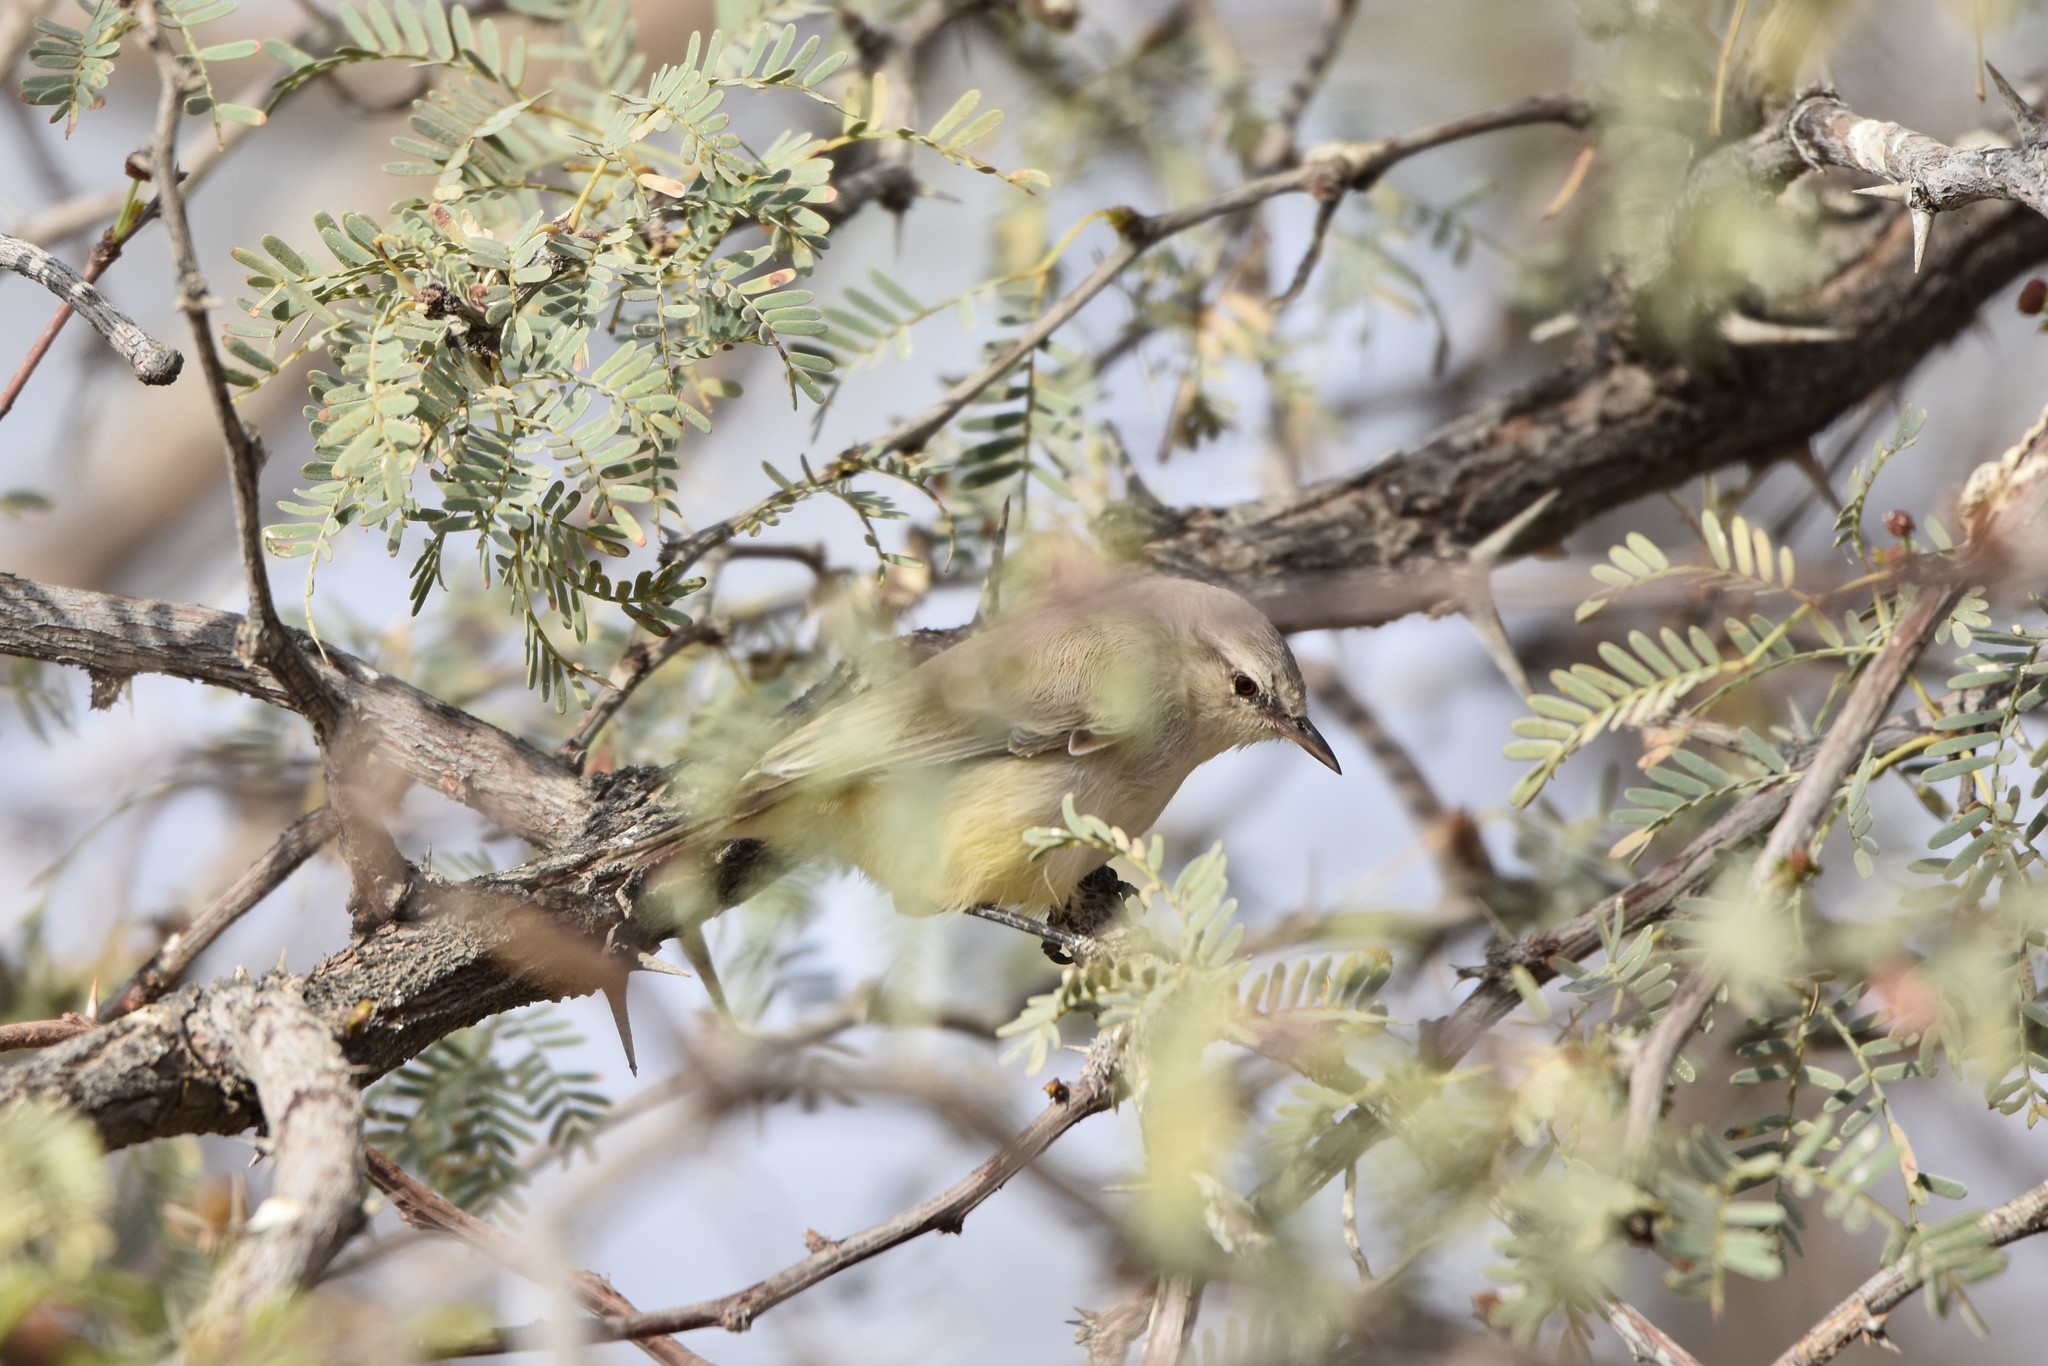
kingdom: Animalia
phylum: Chordata
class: Aves
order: Passeriformes
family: Cisticolidae
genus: Eremomela
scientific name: Eremomela icteropygialis
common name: Yellow-bellied eremomela
